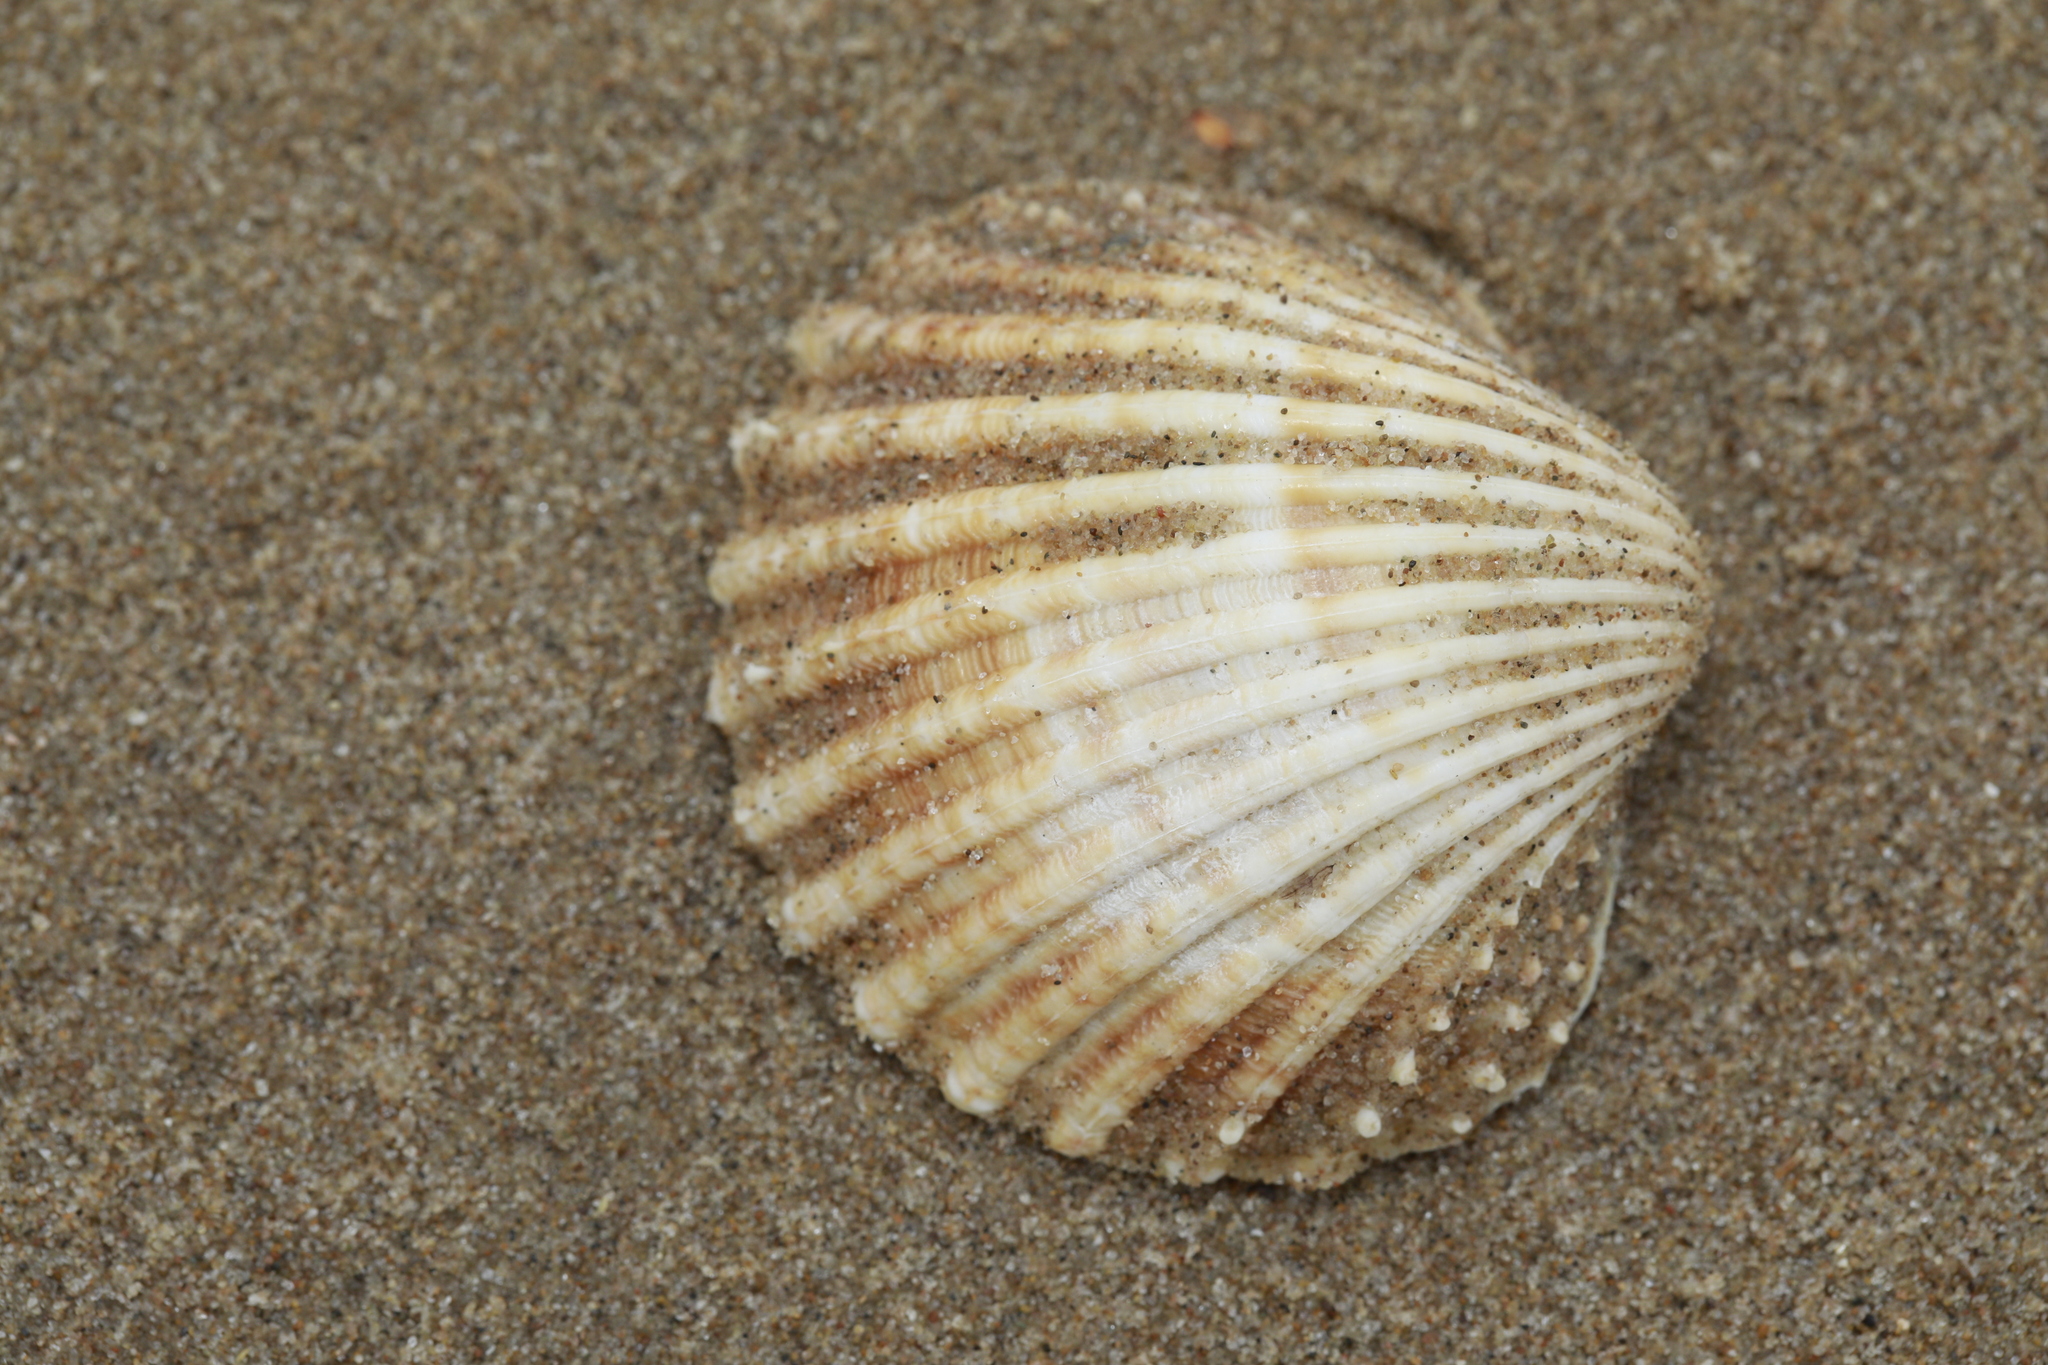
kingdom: Animalia
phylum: Mollusca
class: Bivalvia
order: Cardiida
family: Cardiidae
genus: Acanthocardia
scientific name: Acanthocardia echinata
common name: Prickly cockle
